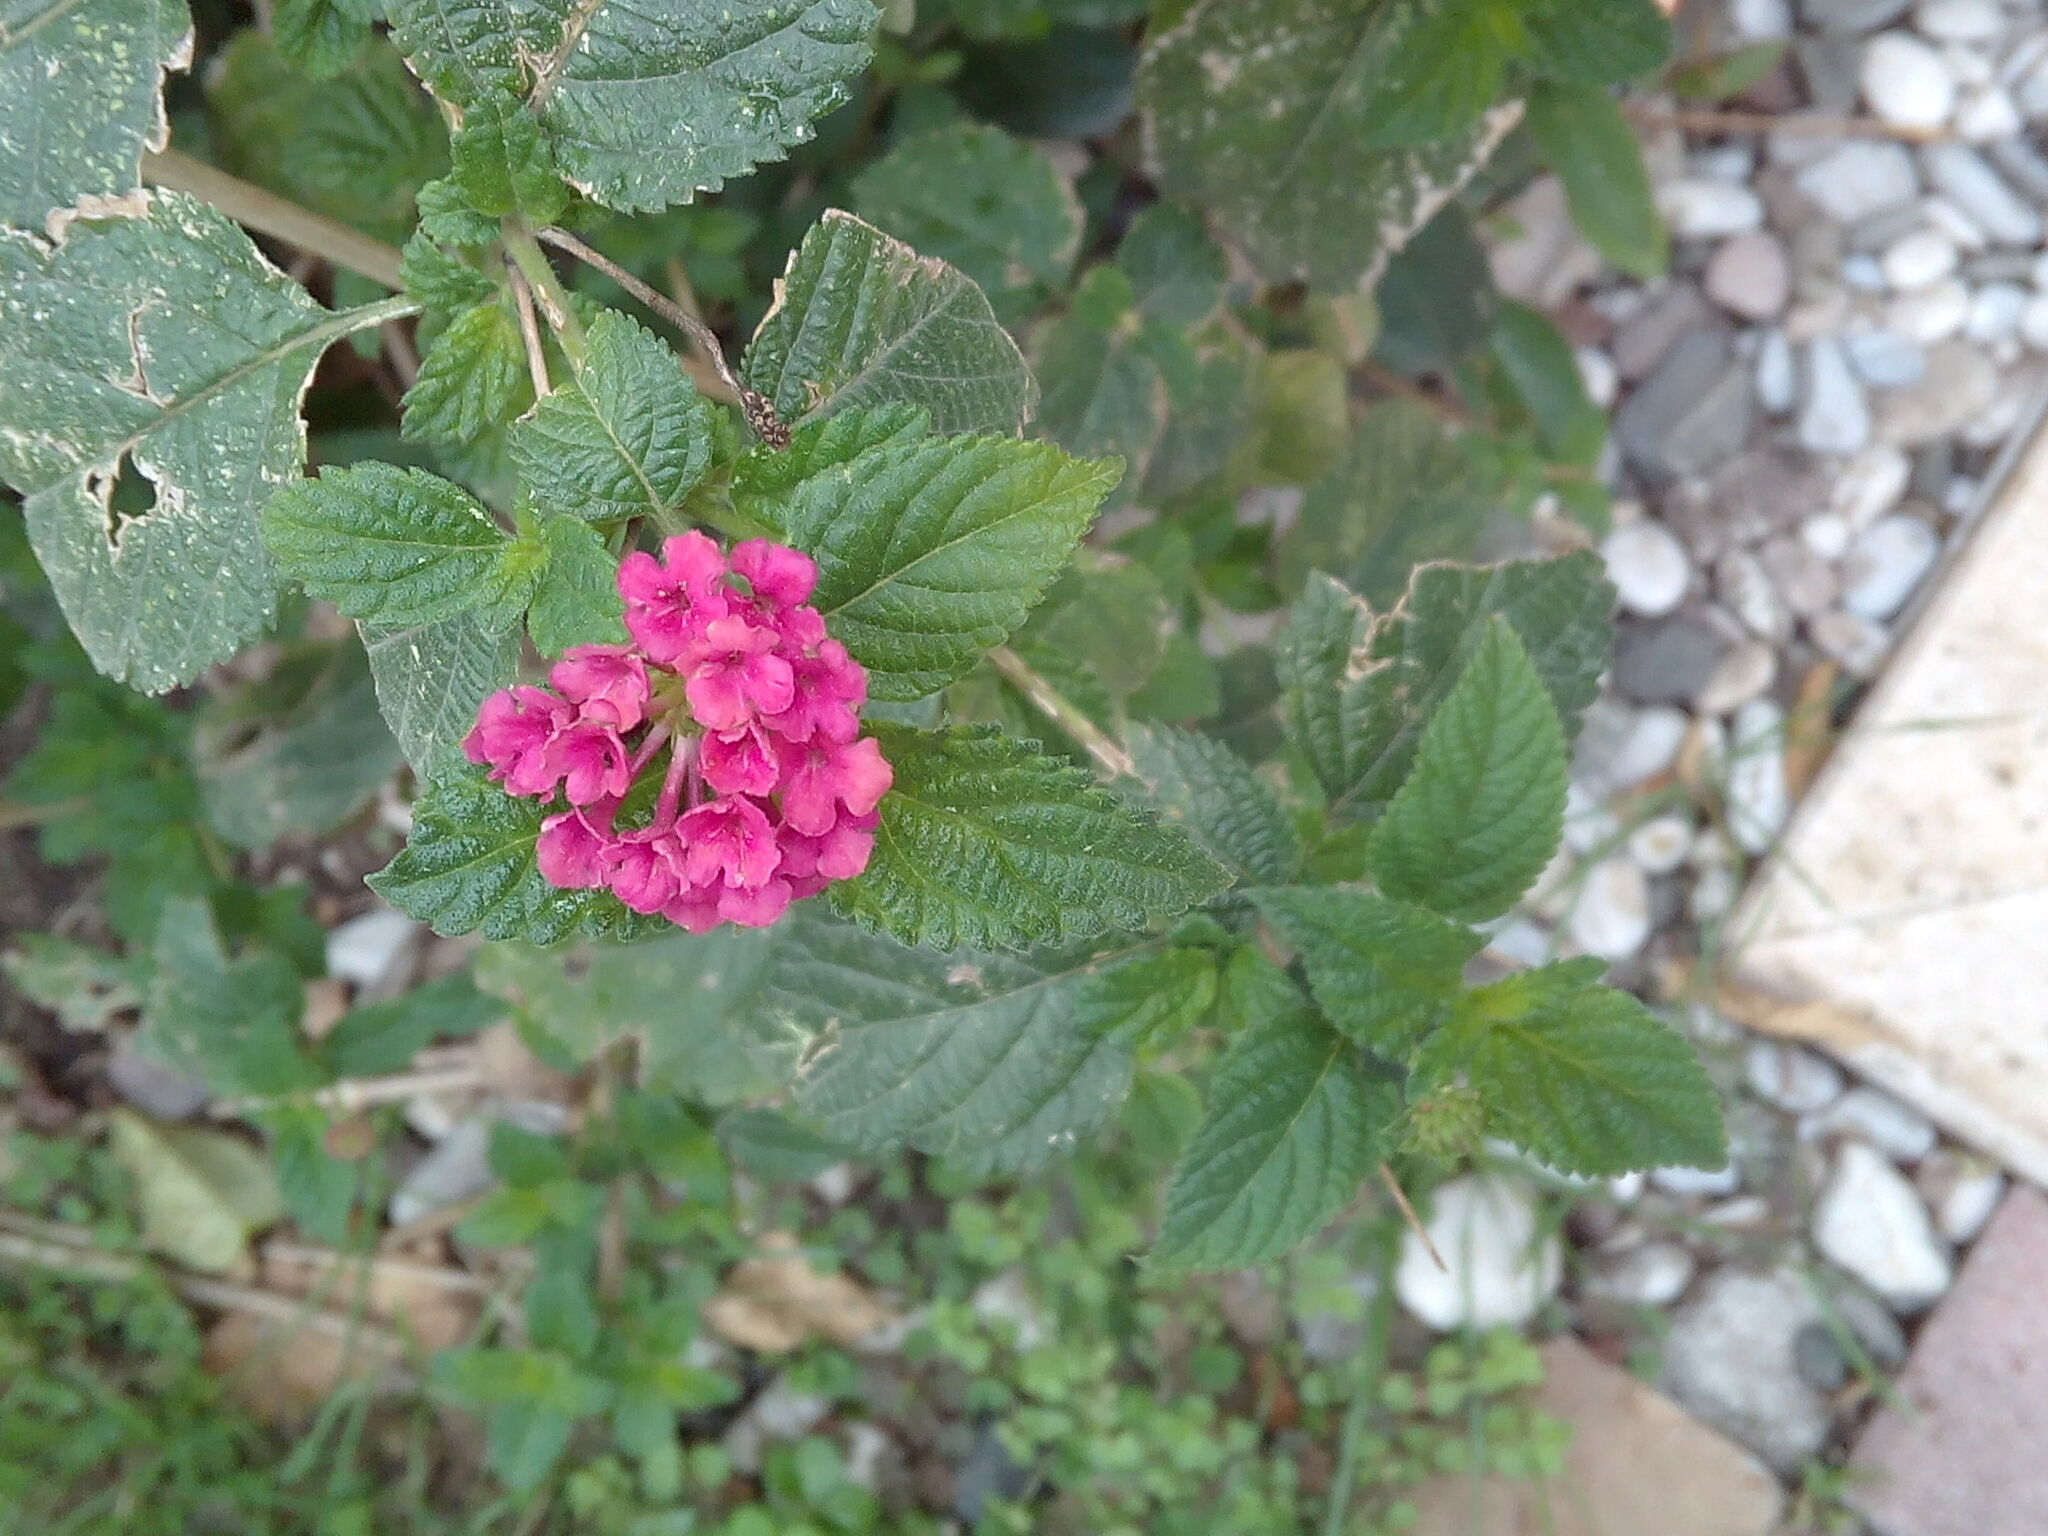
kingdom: Plantae
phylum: Tracheophyta
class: Magnoliopsida
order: Lamiales
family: Verbenaceae
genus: Lantana
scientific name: Lantana camara
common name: Lantana
